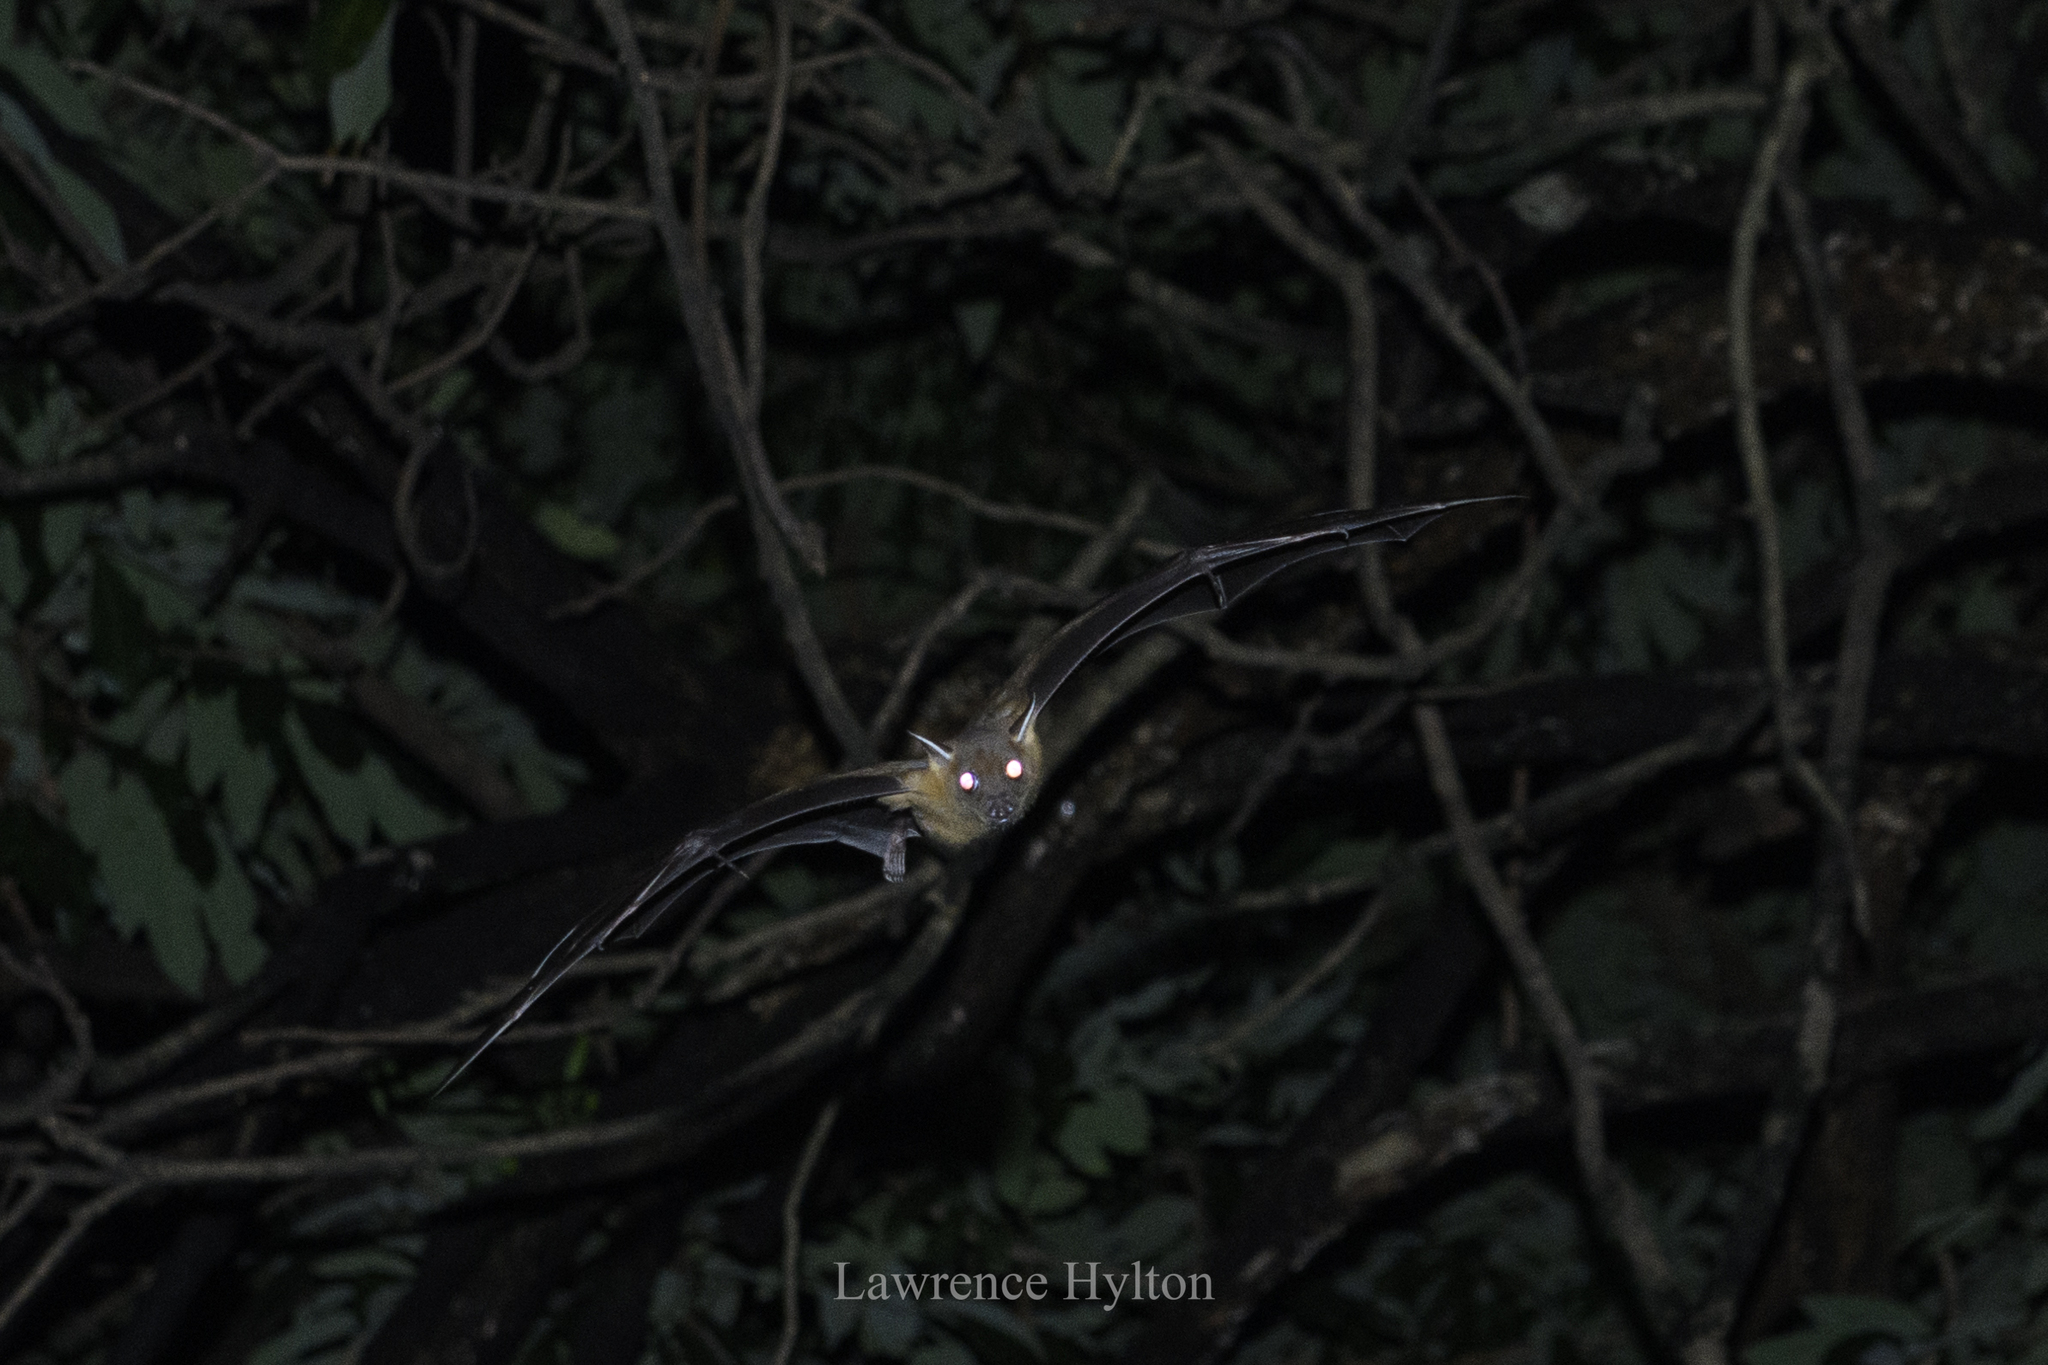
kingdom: Animalia
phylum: Chordata
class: Mammalia
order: Chiroptera
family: Pteropodidae
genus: Cynopterus
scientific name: Cynopterus sphinx
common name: Greater short-nosed fruit bat
